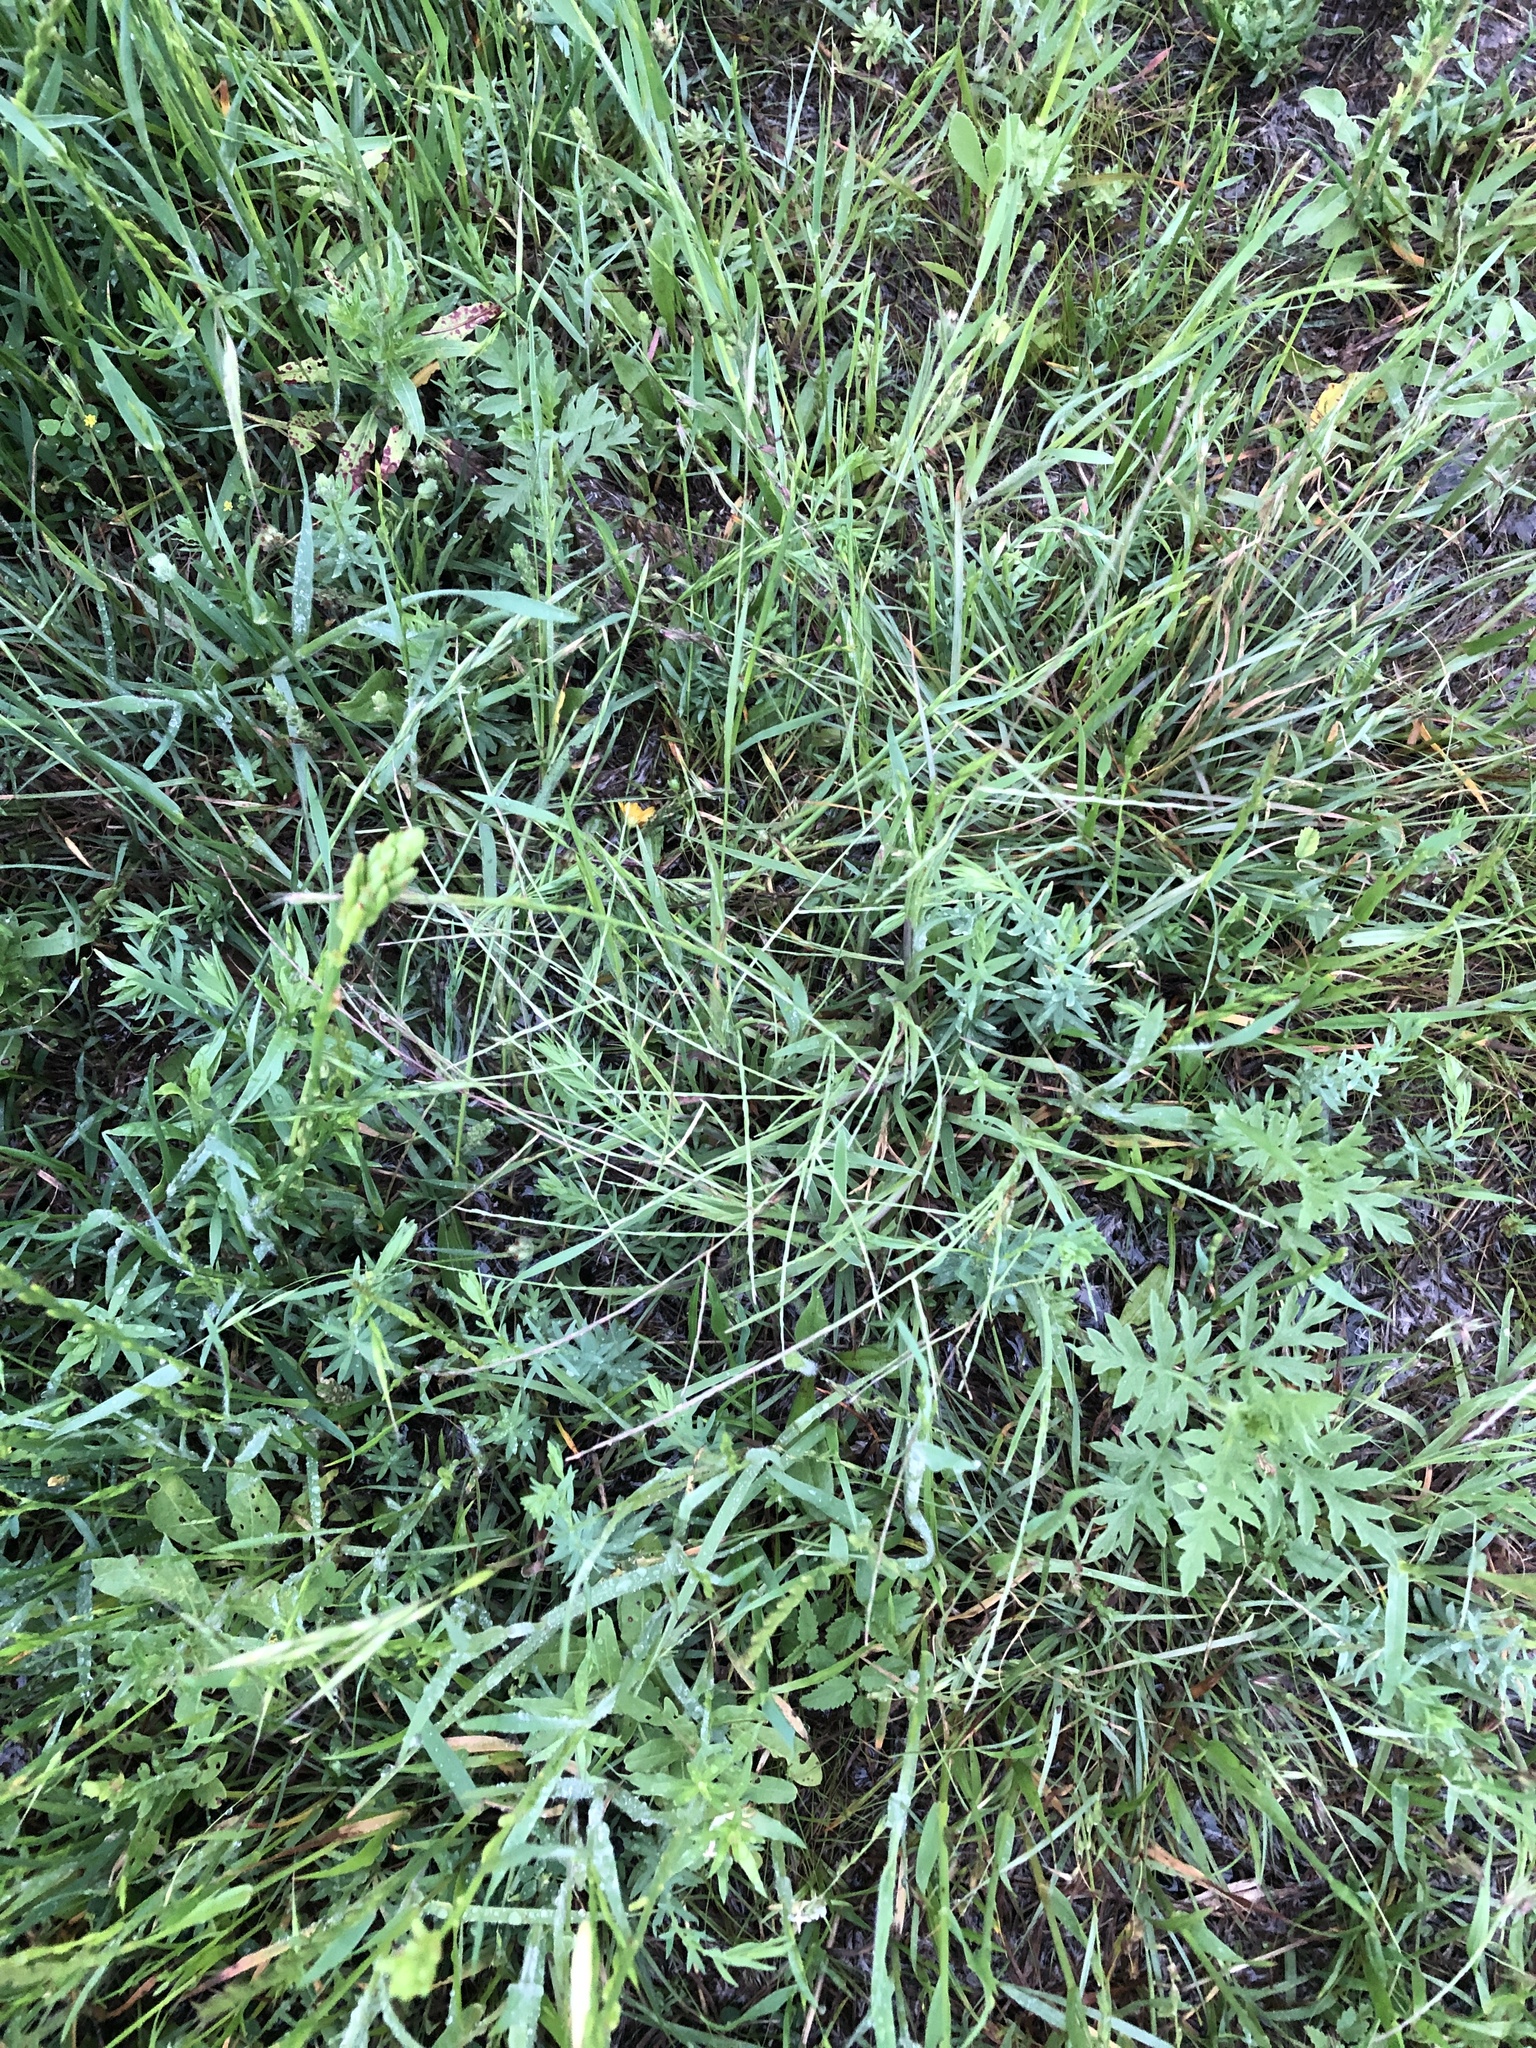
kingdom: Plantae
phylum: Tracheophyta
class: Liliopsida
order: Poales
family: Poaceae
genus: Muhlenbergia
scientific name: Muhlenbergia paniculata
